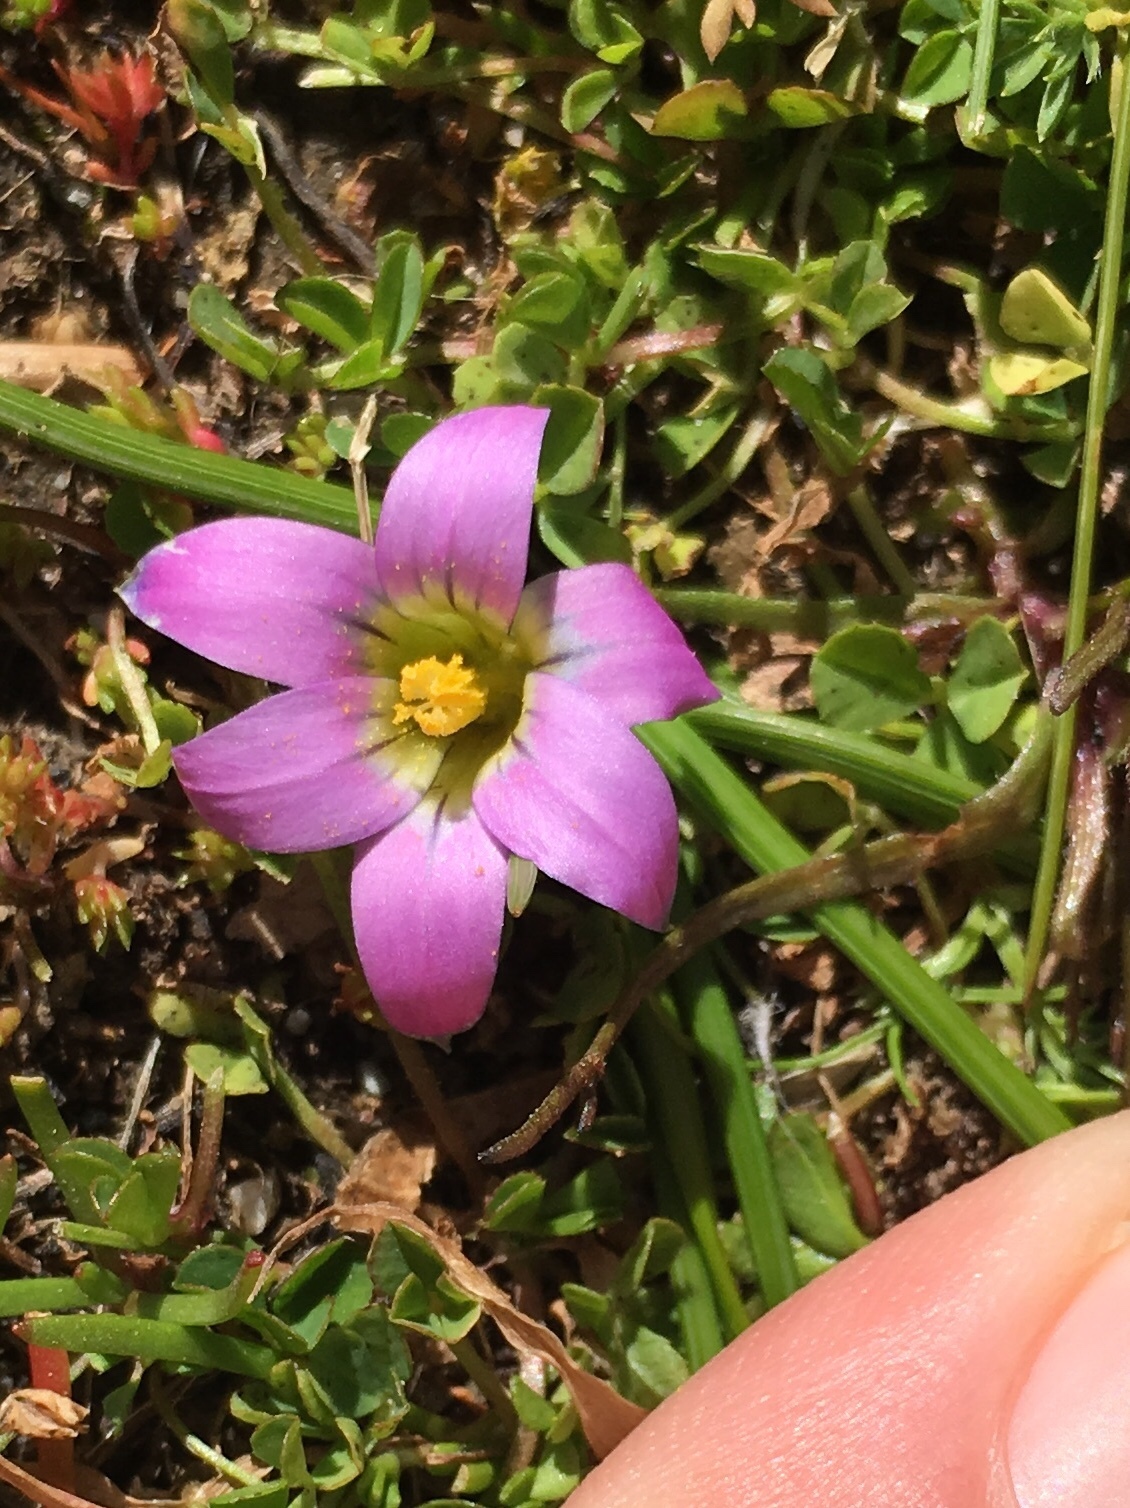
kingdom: Plantae
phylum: Tracheophyta
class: Liliopsida
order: Asparagales
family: Iridaceae
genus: Romulea
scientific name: Romulea rosea
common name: Oniongrass
